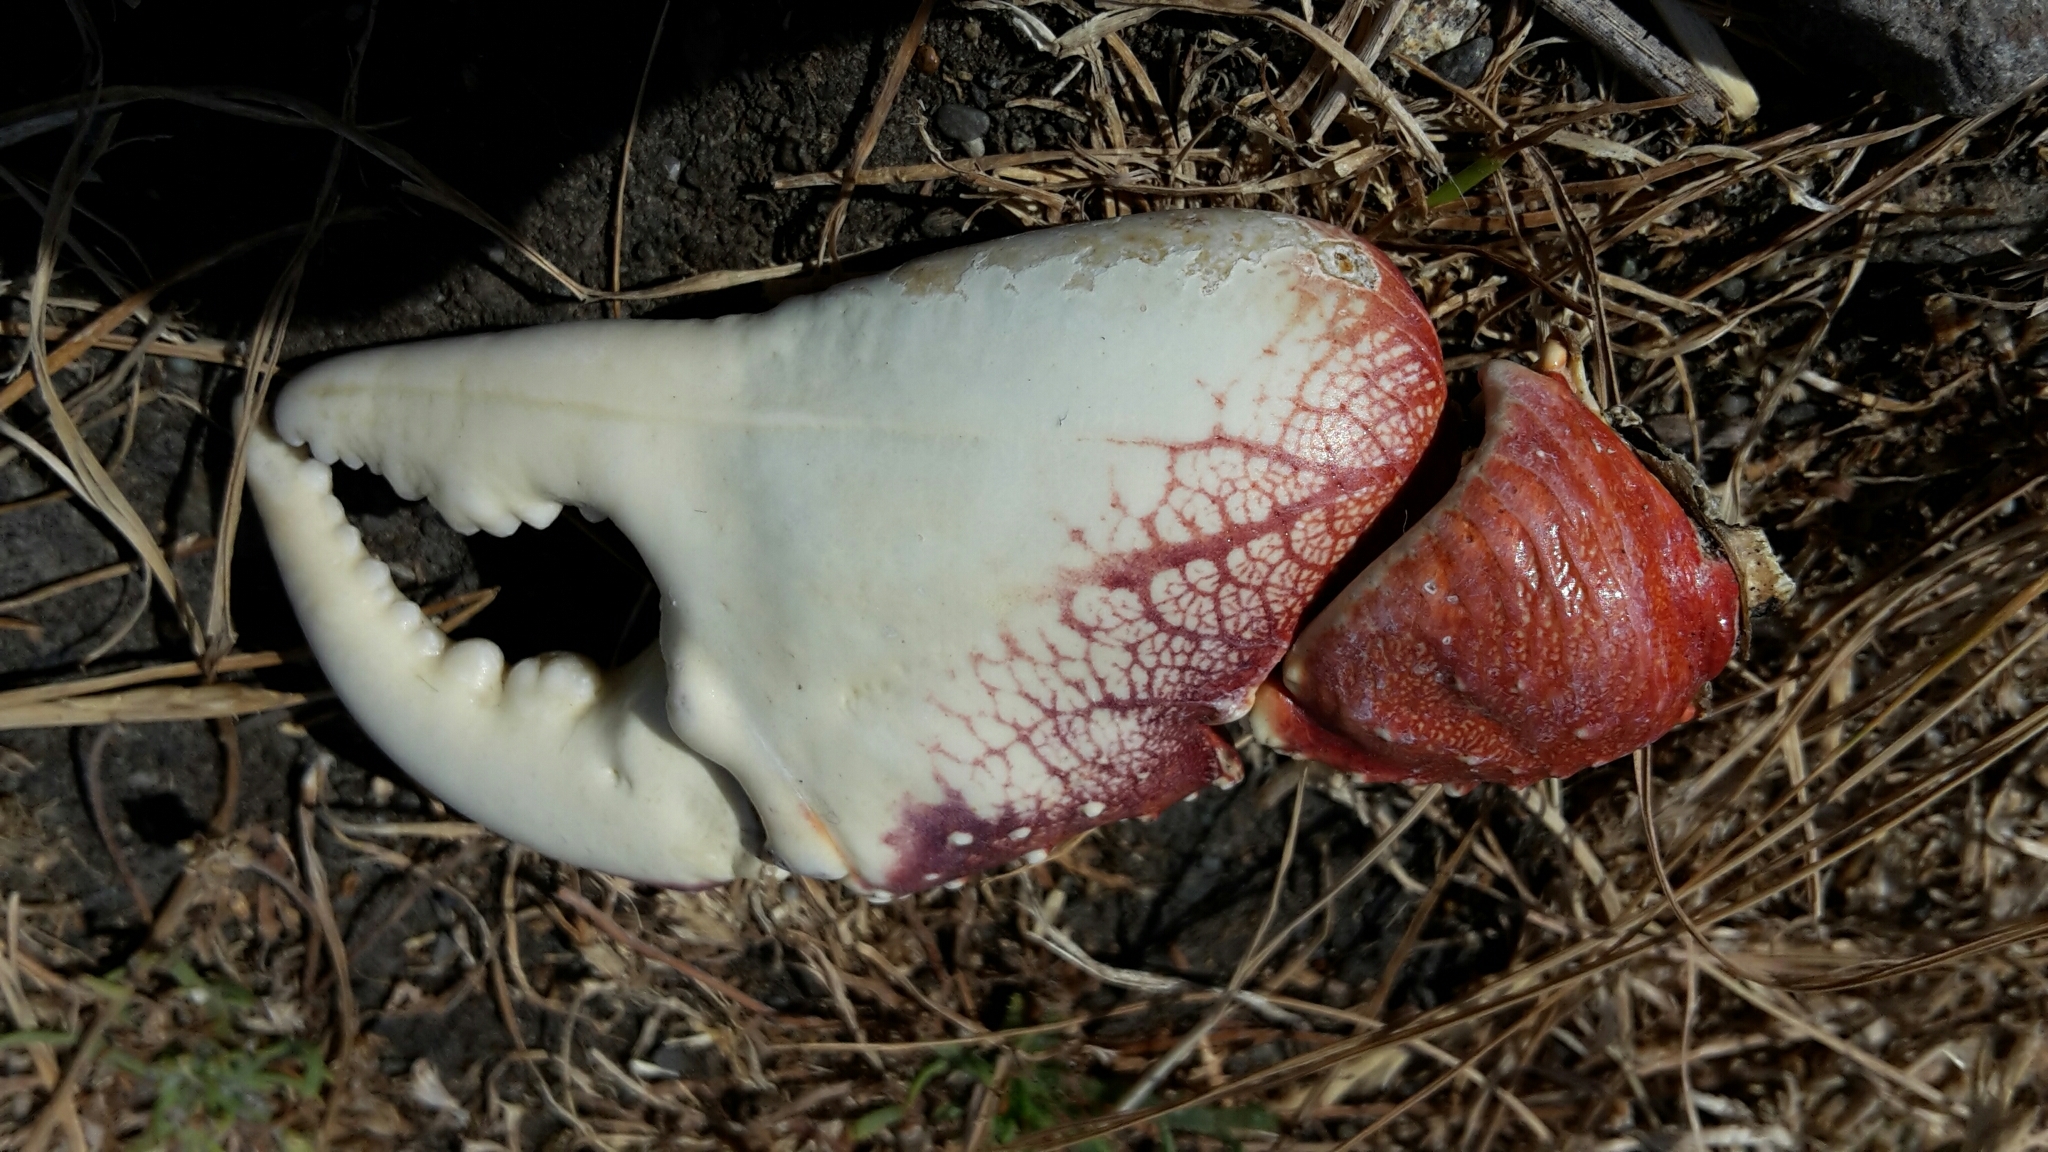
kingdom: Animalia
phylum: Arthropoda
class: Malacostraca
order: Decapoda
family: Grapsidae
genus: Leptograpsus
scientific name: Leptograpsus variegatus
